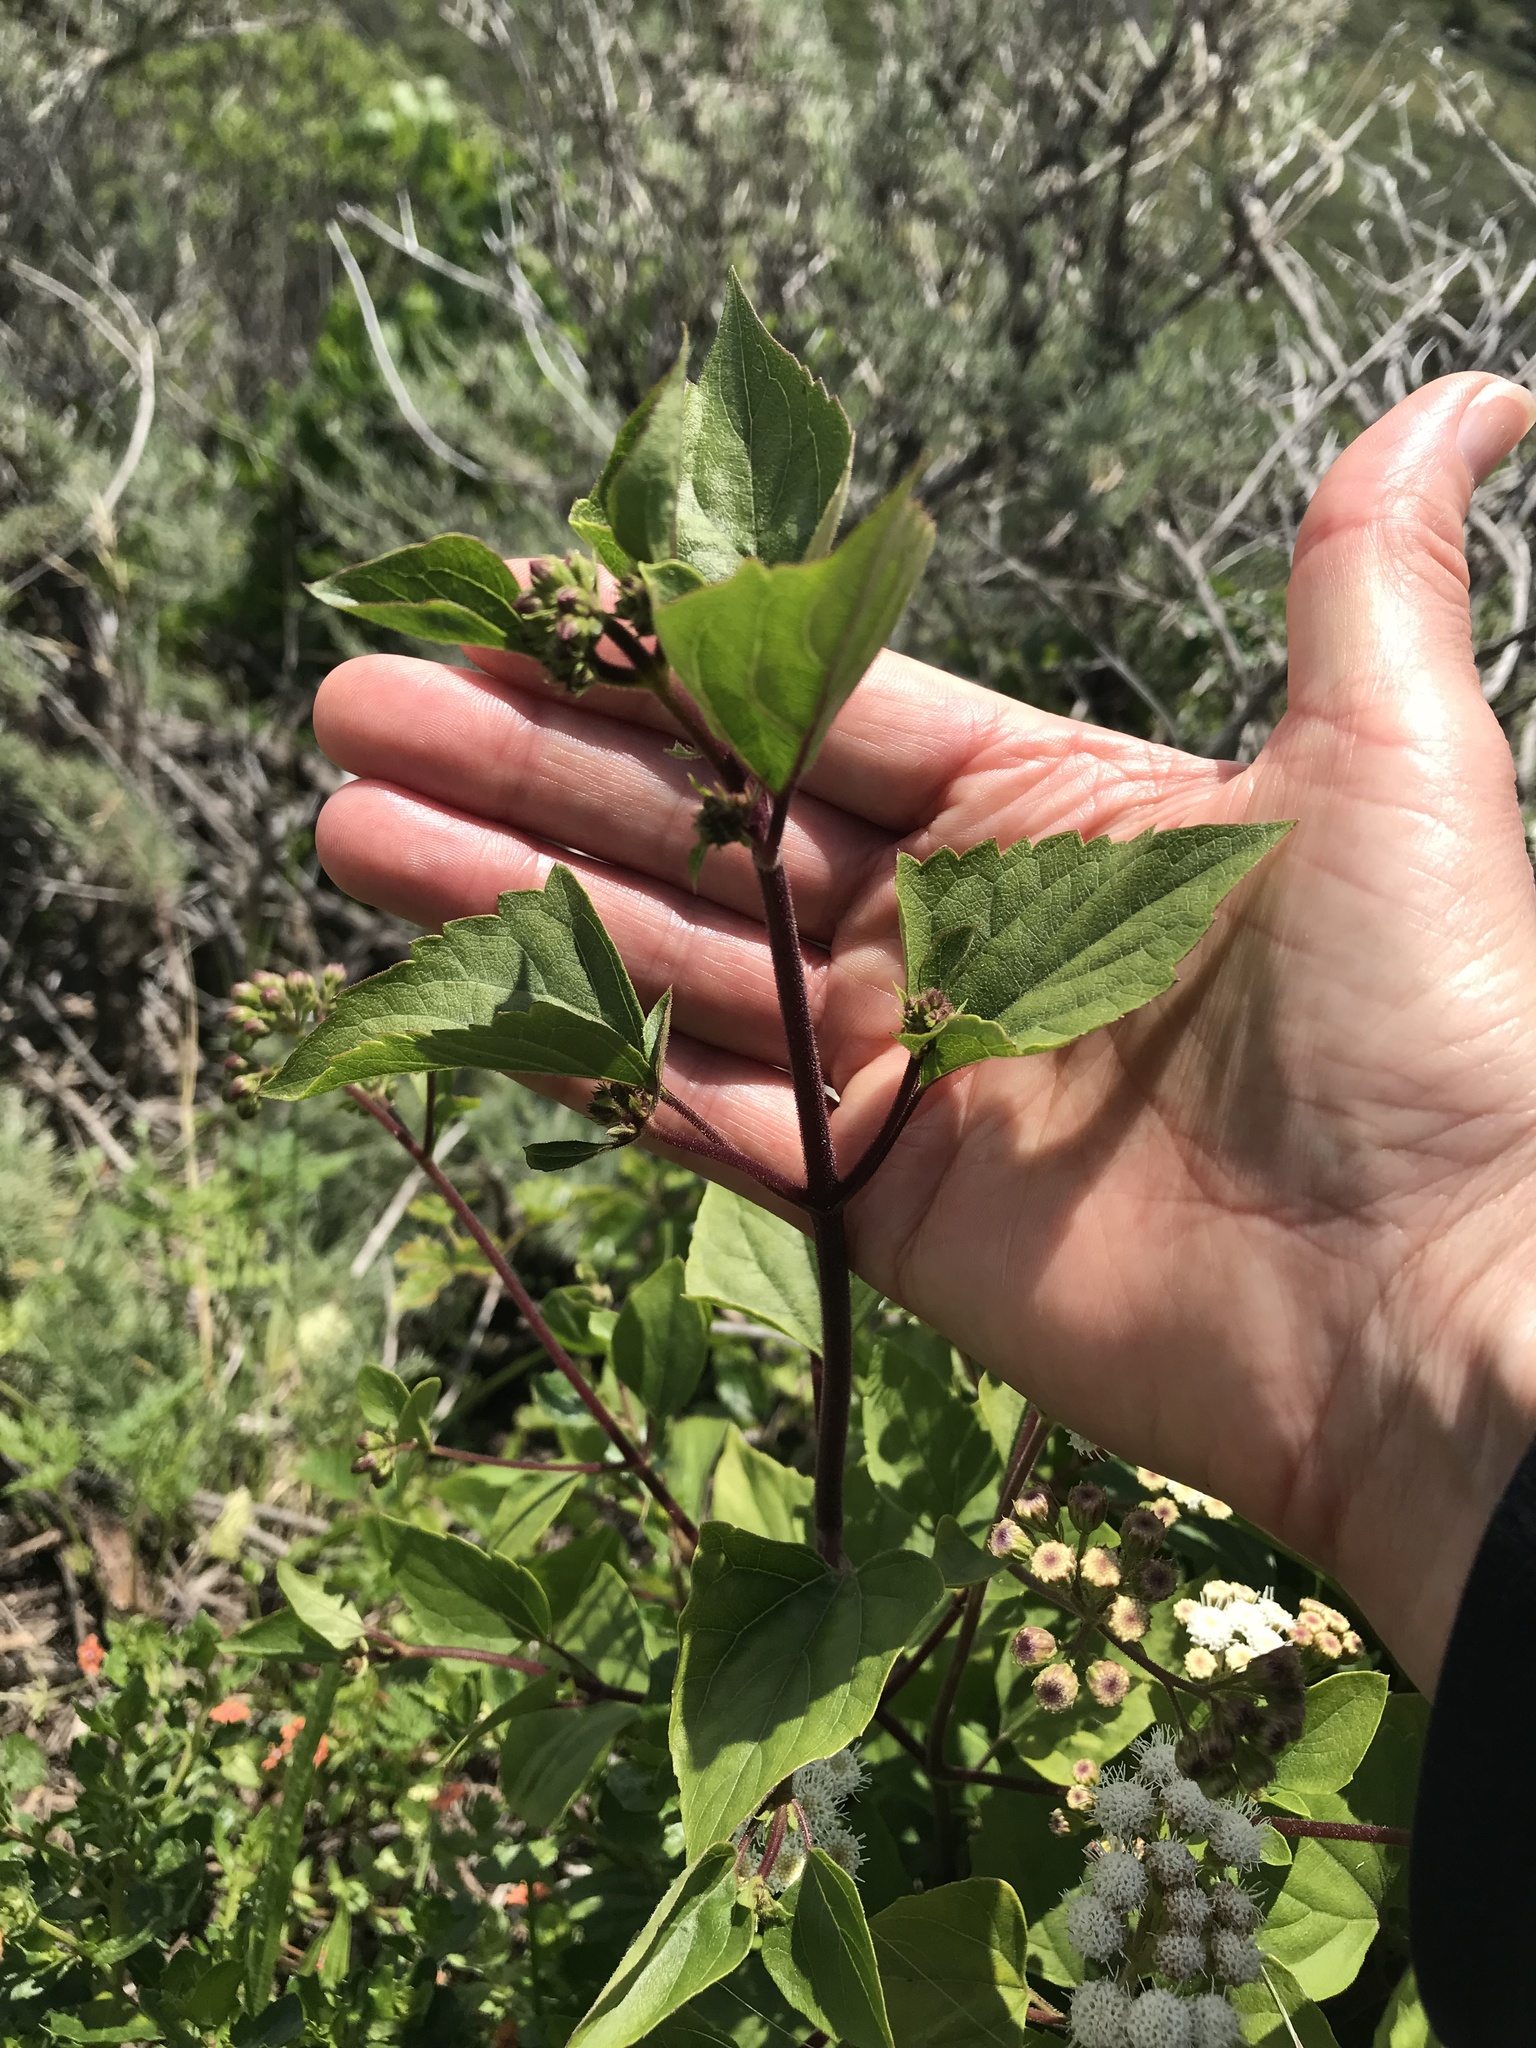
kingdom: Plantae
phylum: Tracheophyta
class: Magnoliopsida
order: Asterales
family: Asteraceae
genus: Ageratina
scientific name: Ageratina adenophora
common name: Sticky snakeroot
